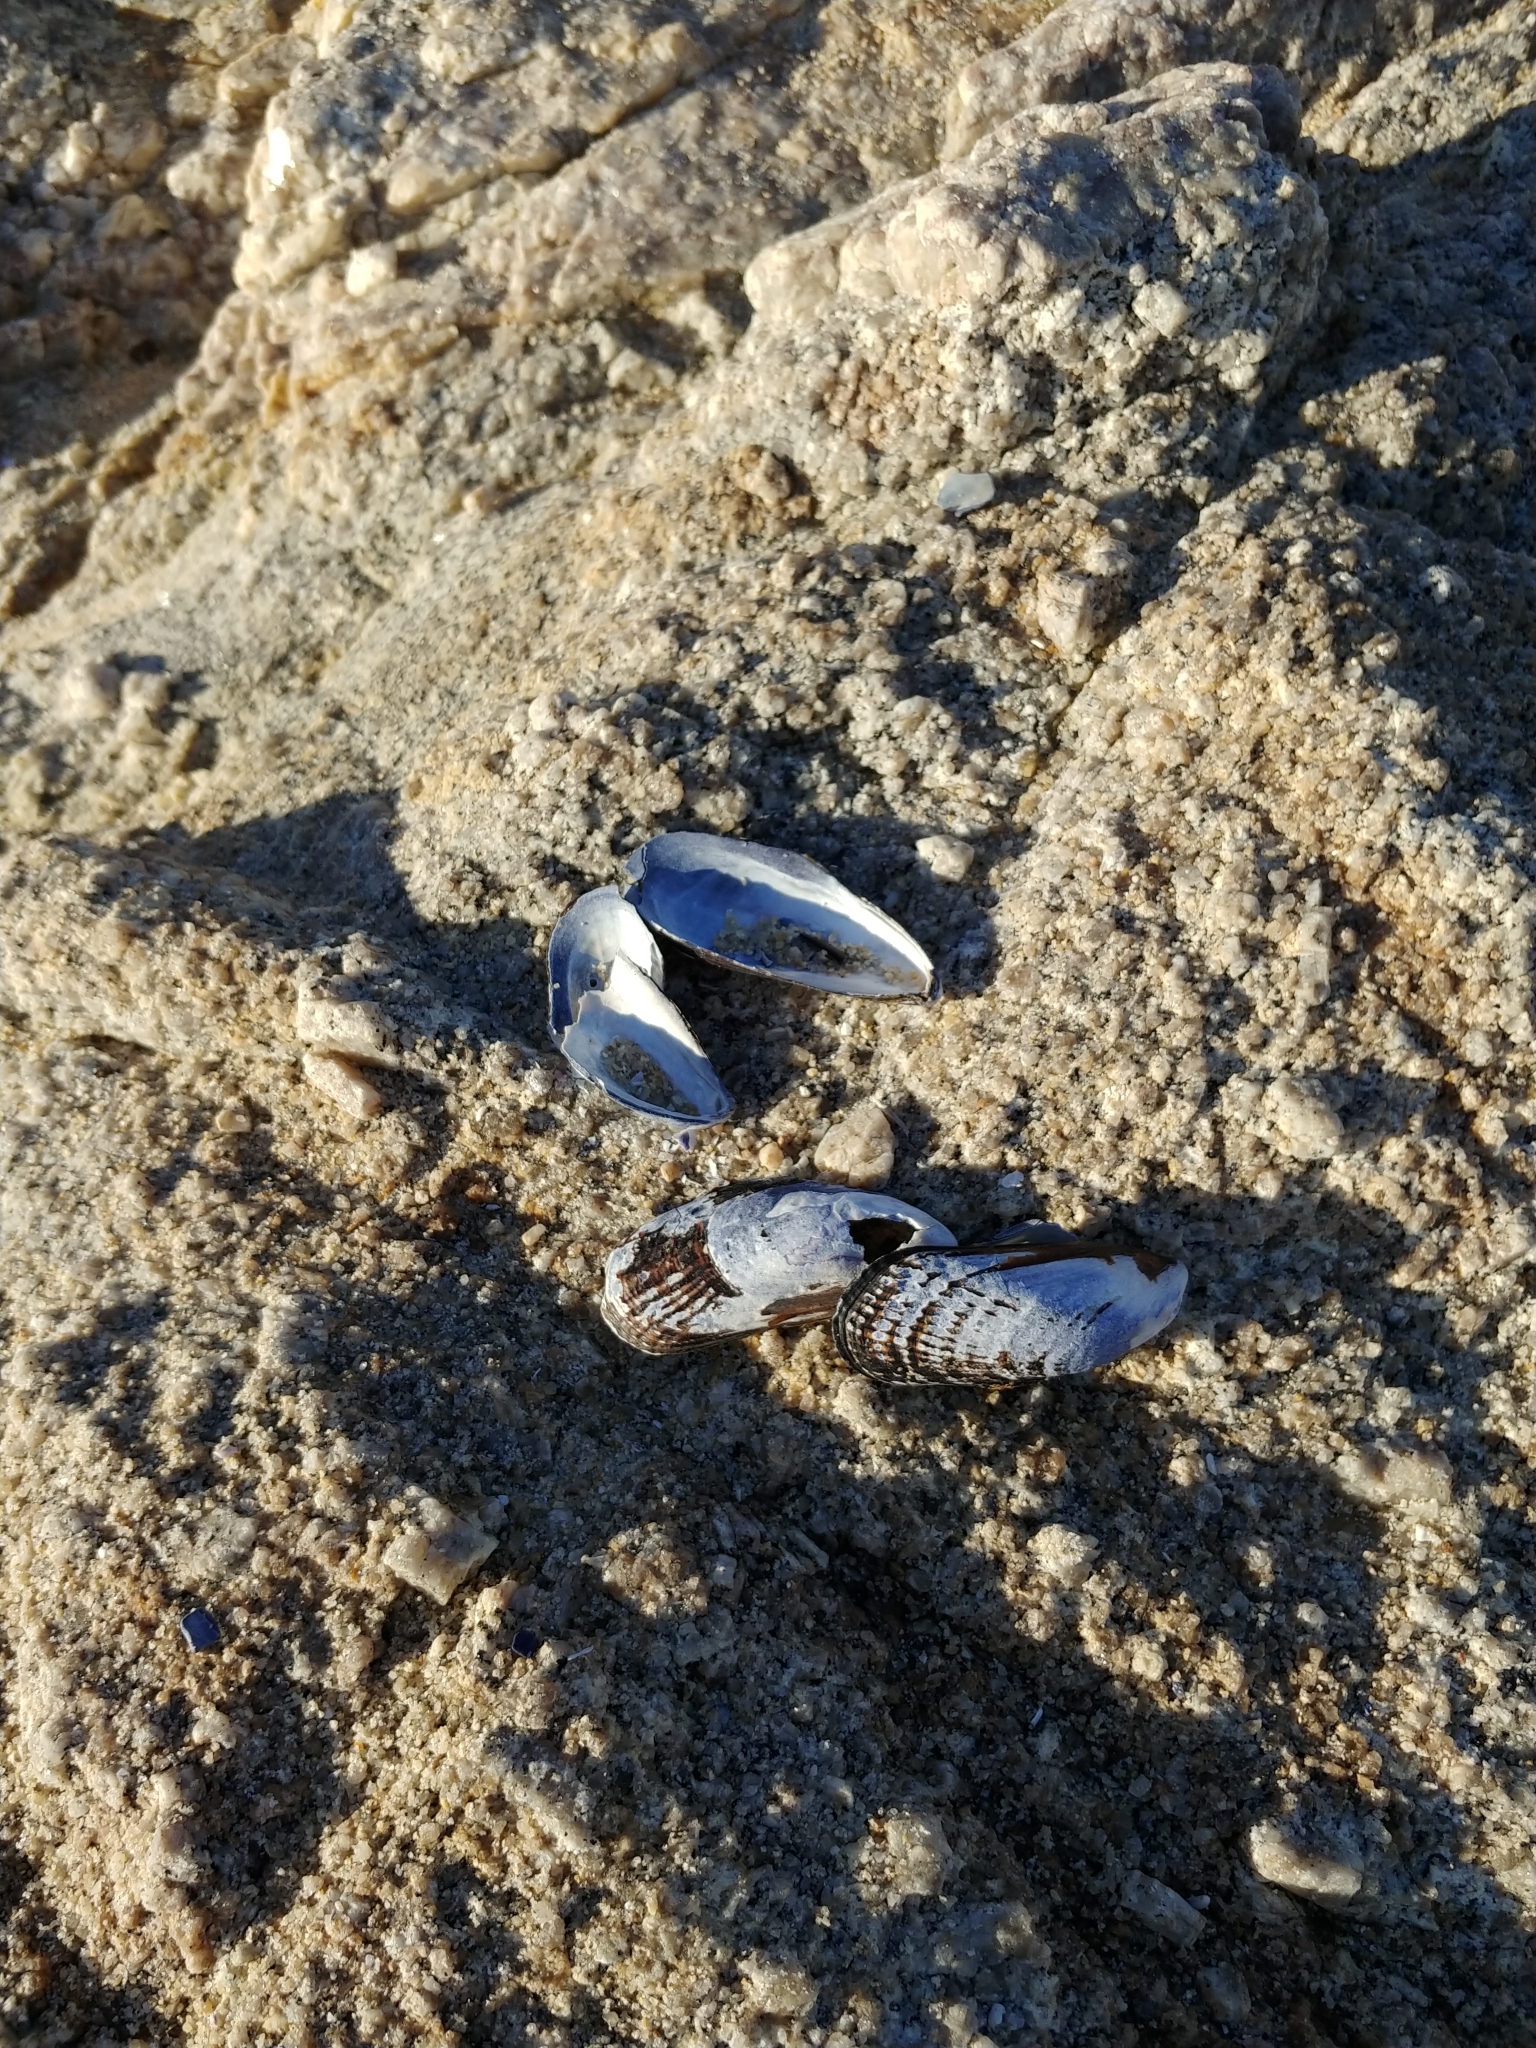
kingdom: Animalia
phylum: Mollusca
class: Bivalvia
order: Mytilida
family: Mytilidae
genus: Mytilus
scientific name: Mytilus californianus
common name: California mussel
